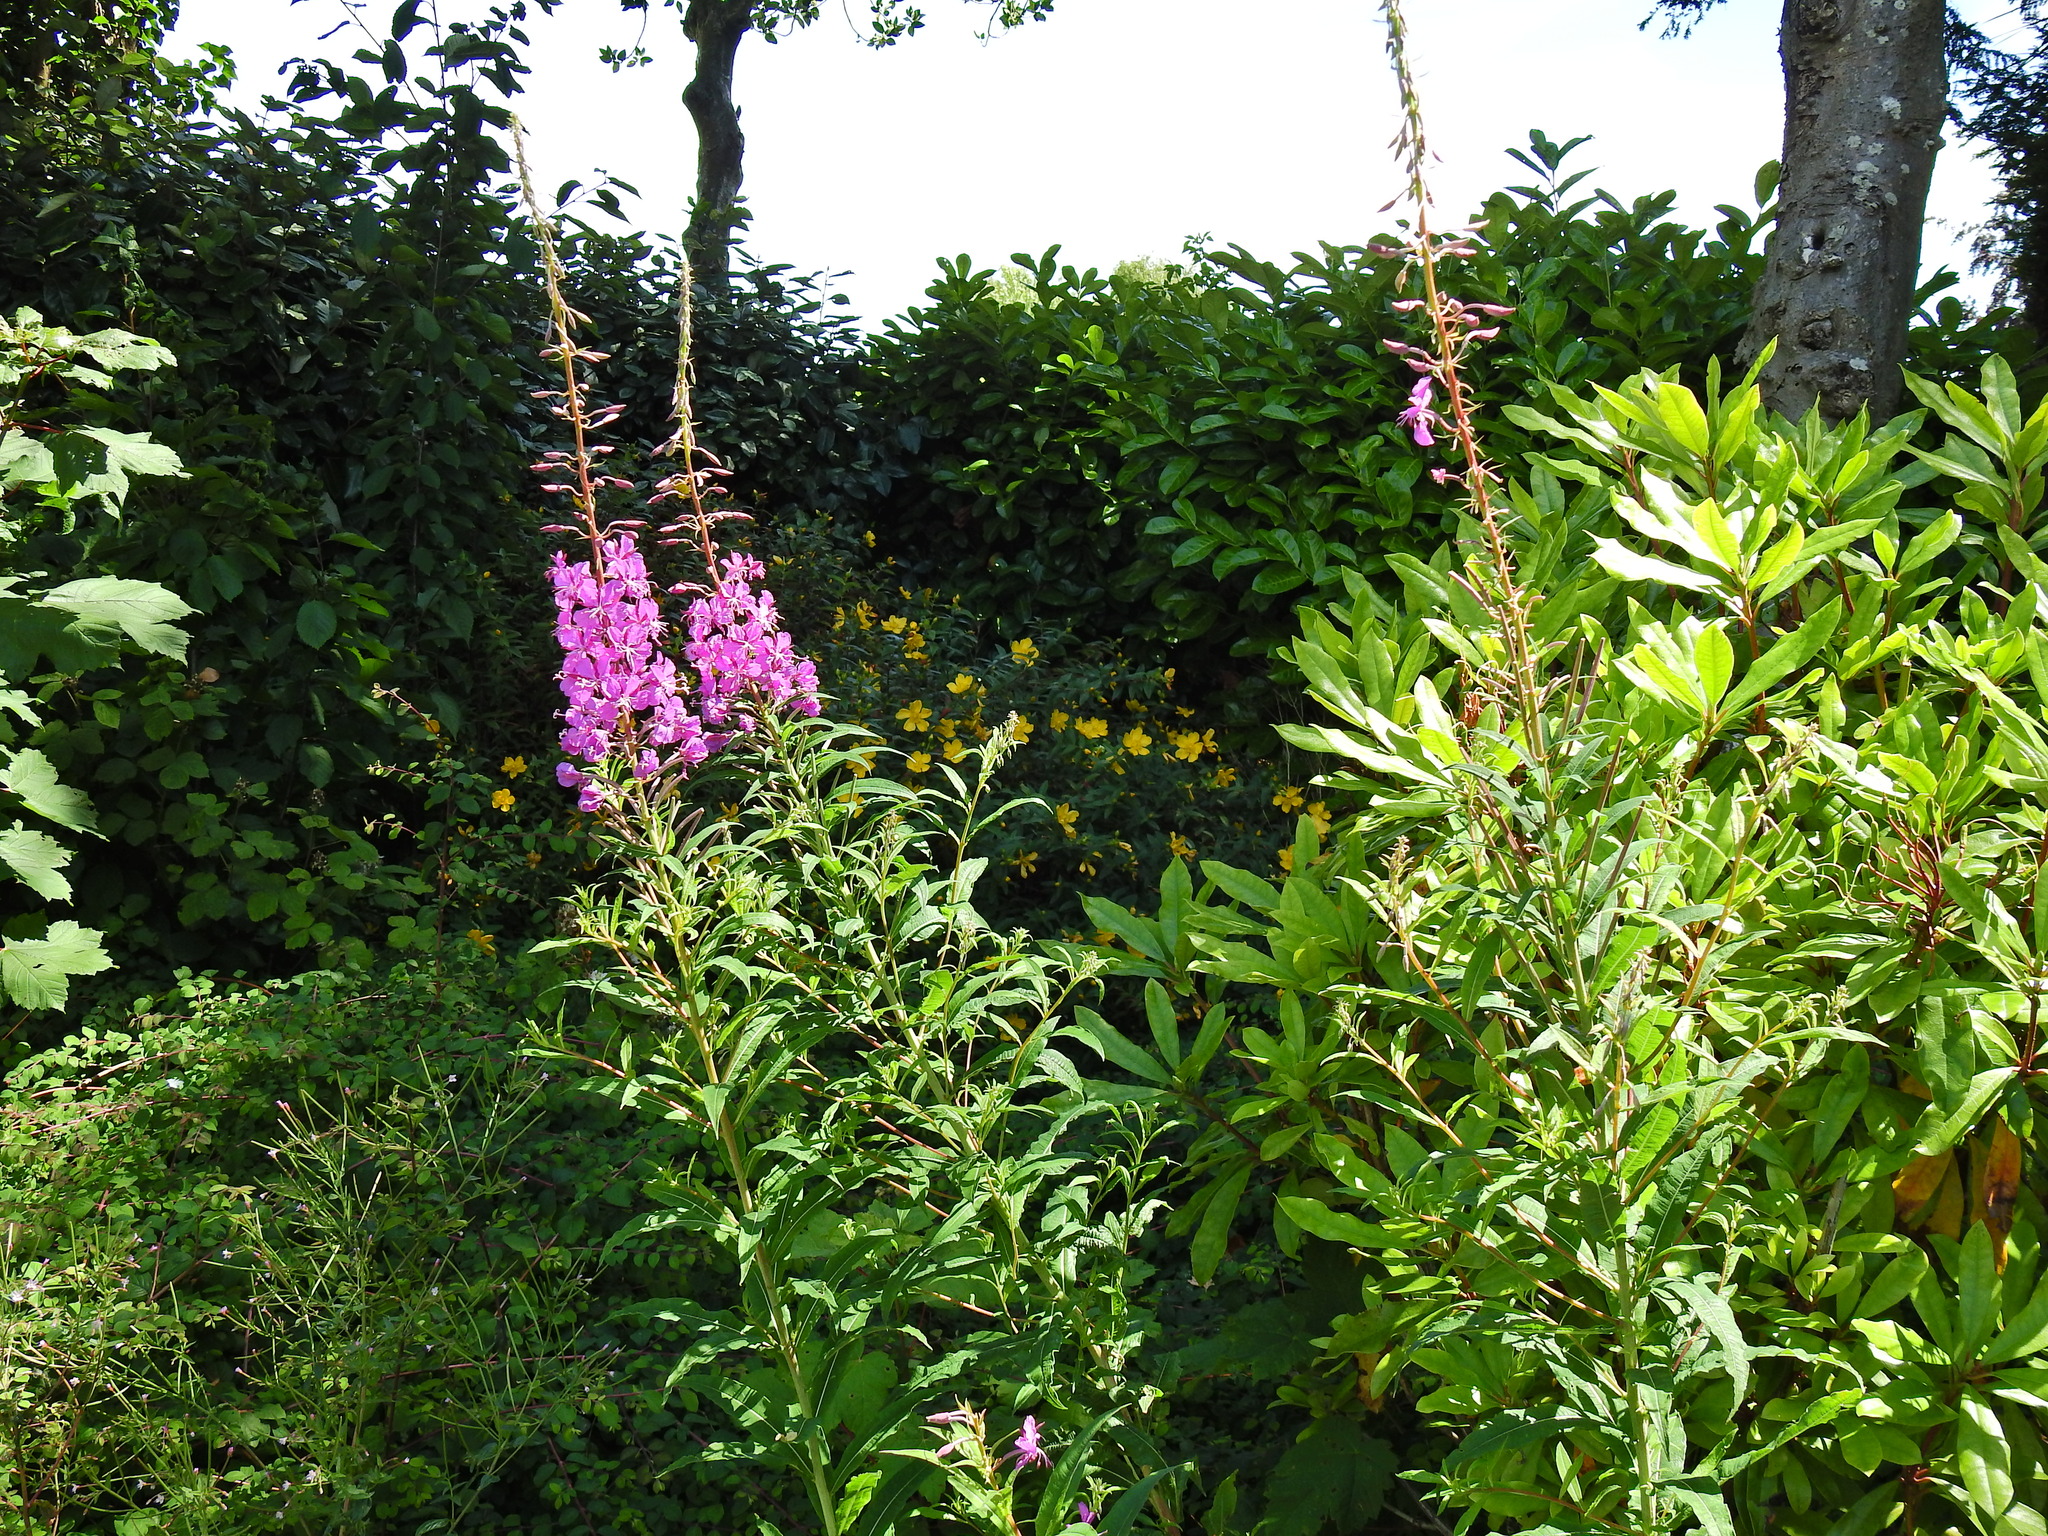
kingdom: Plantae
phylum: Tracheophyta
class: Magnoliopsida
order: Myrtales
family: Onagraceae
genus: Chamaenerion
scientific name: Chamaenerion angustifolium
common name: Fireweed
